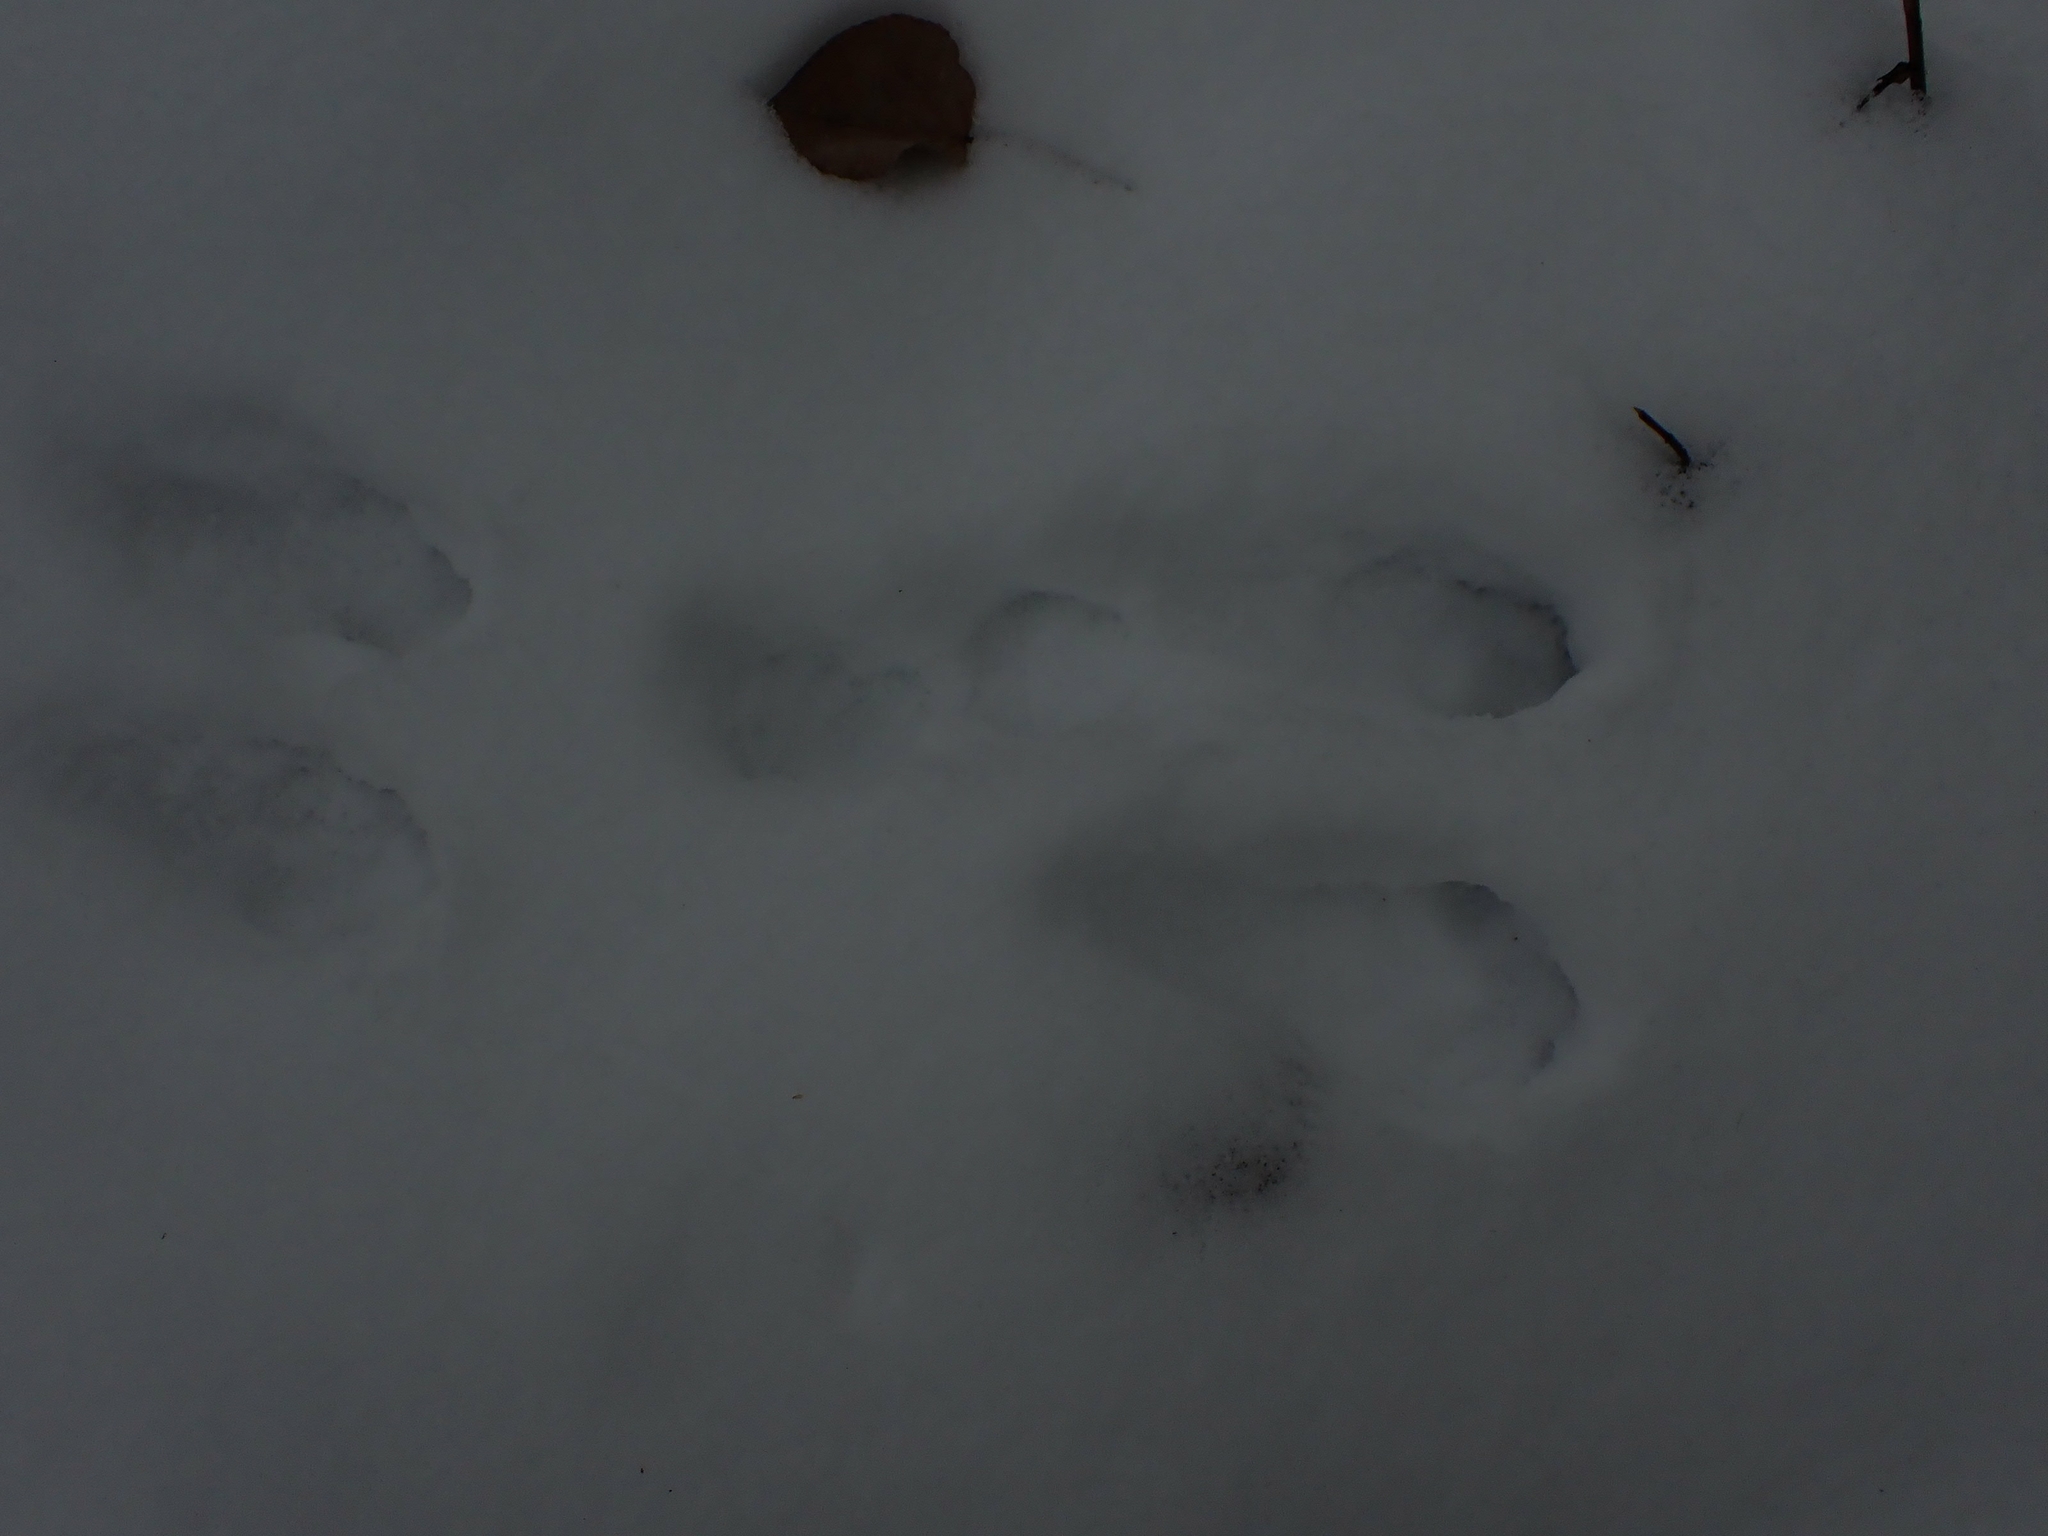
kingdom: Animalia
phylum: Chordata
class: Mammalia
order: Lagomorpha
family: Leporidae
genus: Lepus
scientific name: Lepus americanus
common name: Snowshoe hare
